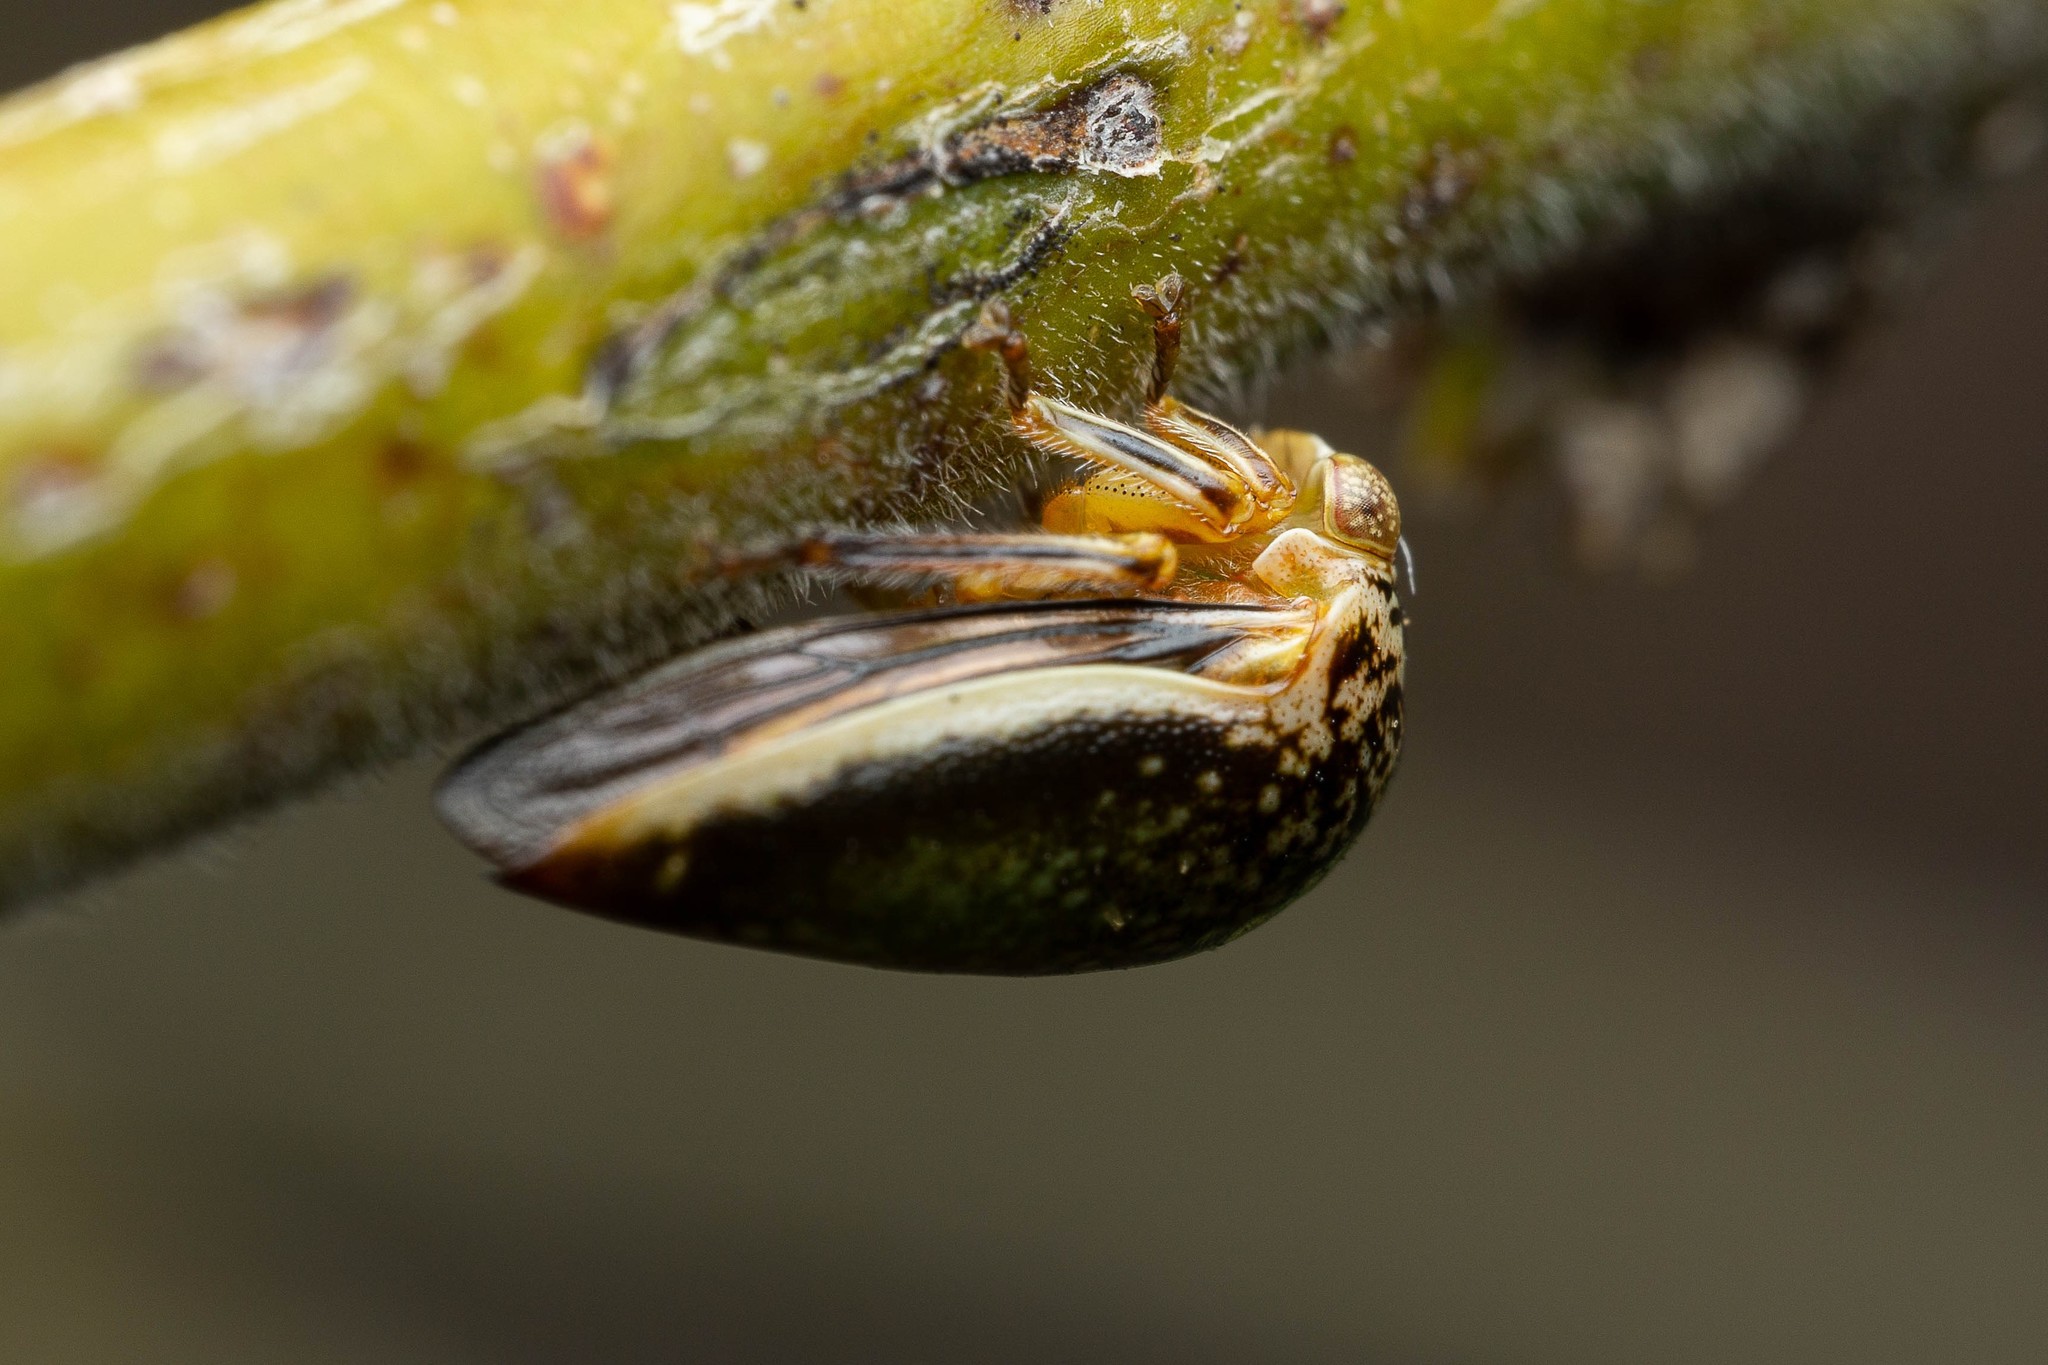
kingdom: Animalia
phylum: Arthropoda
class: Insecta
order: Hemiptera
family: Membracidae
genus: Stictopelta
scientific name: Stictopelta marmorata
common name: Treehopper
